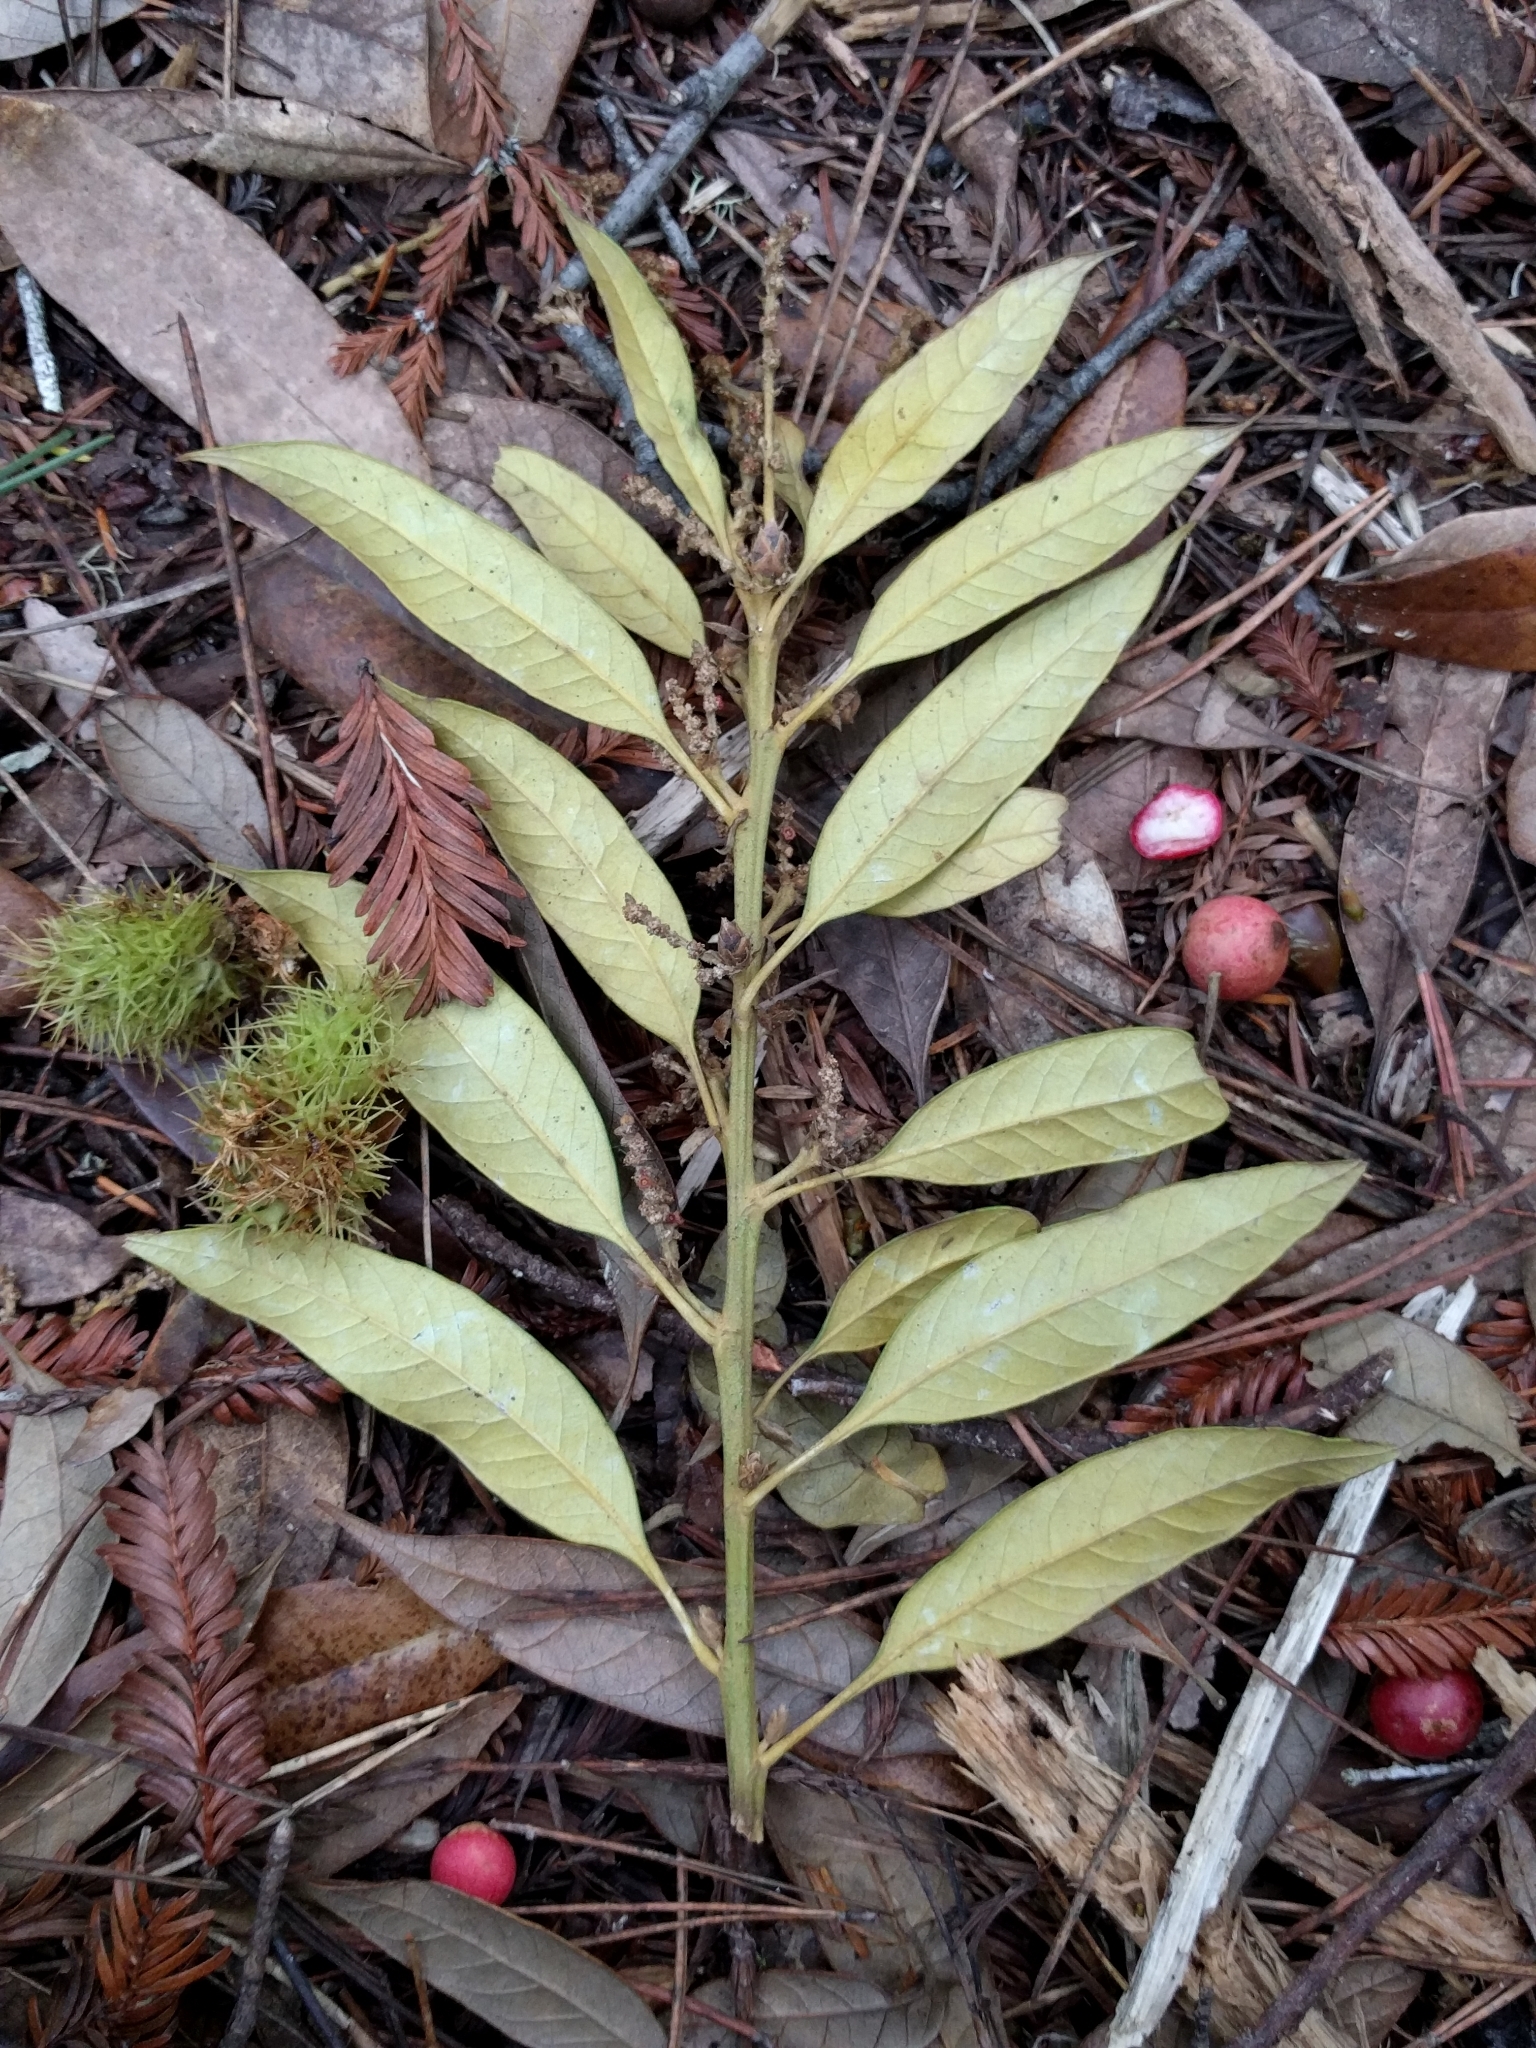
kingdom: Plantae
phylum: Tracheophyta
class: Magnoliopsida
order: Fagales
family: Fagaceae
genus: Chrysolepis
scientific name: Chrysolepis chrysophylla
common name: Giant chinquapin
